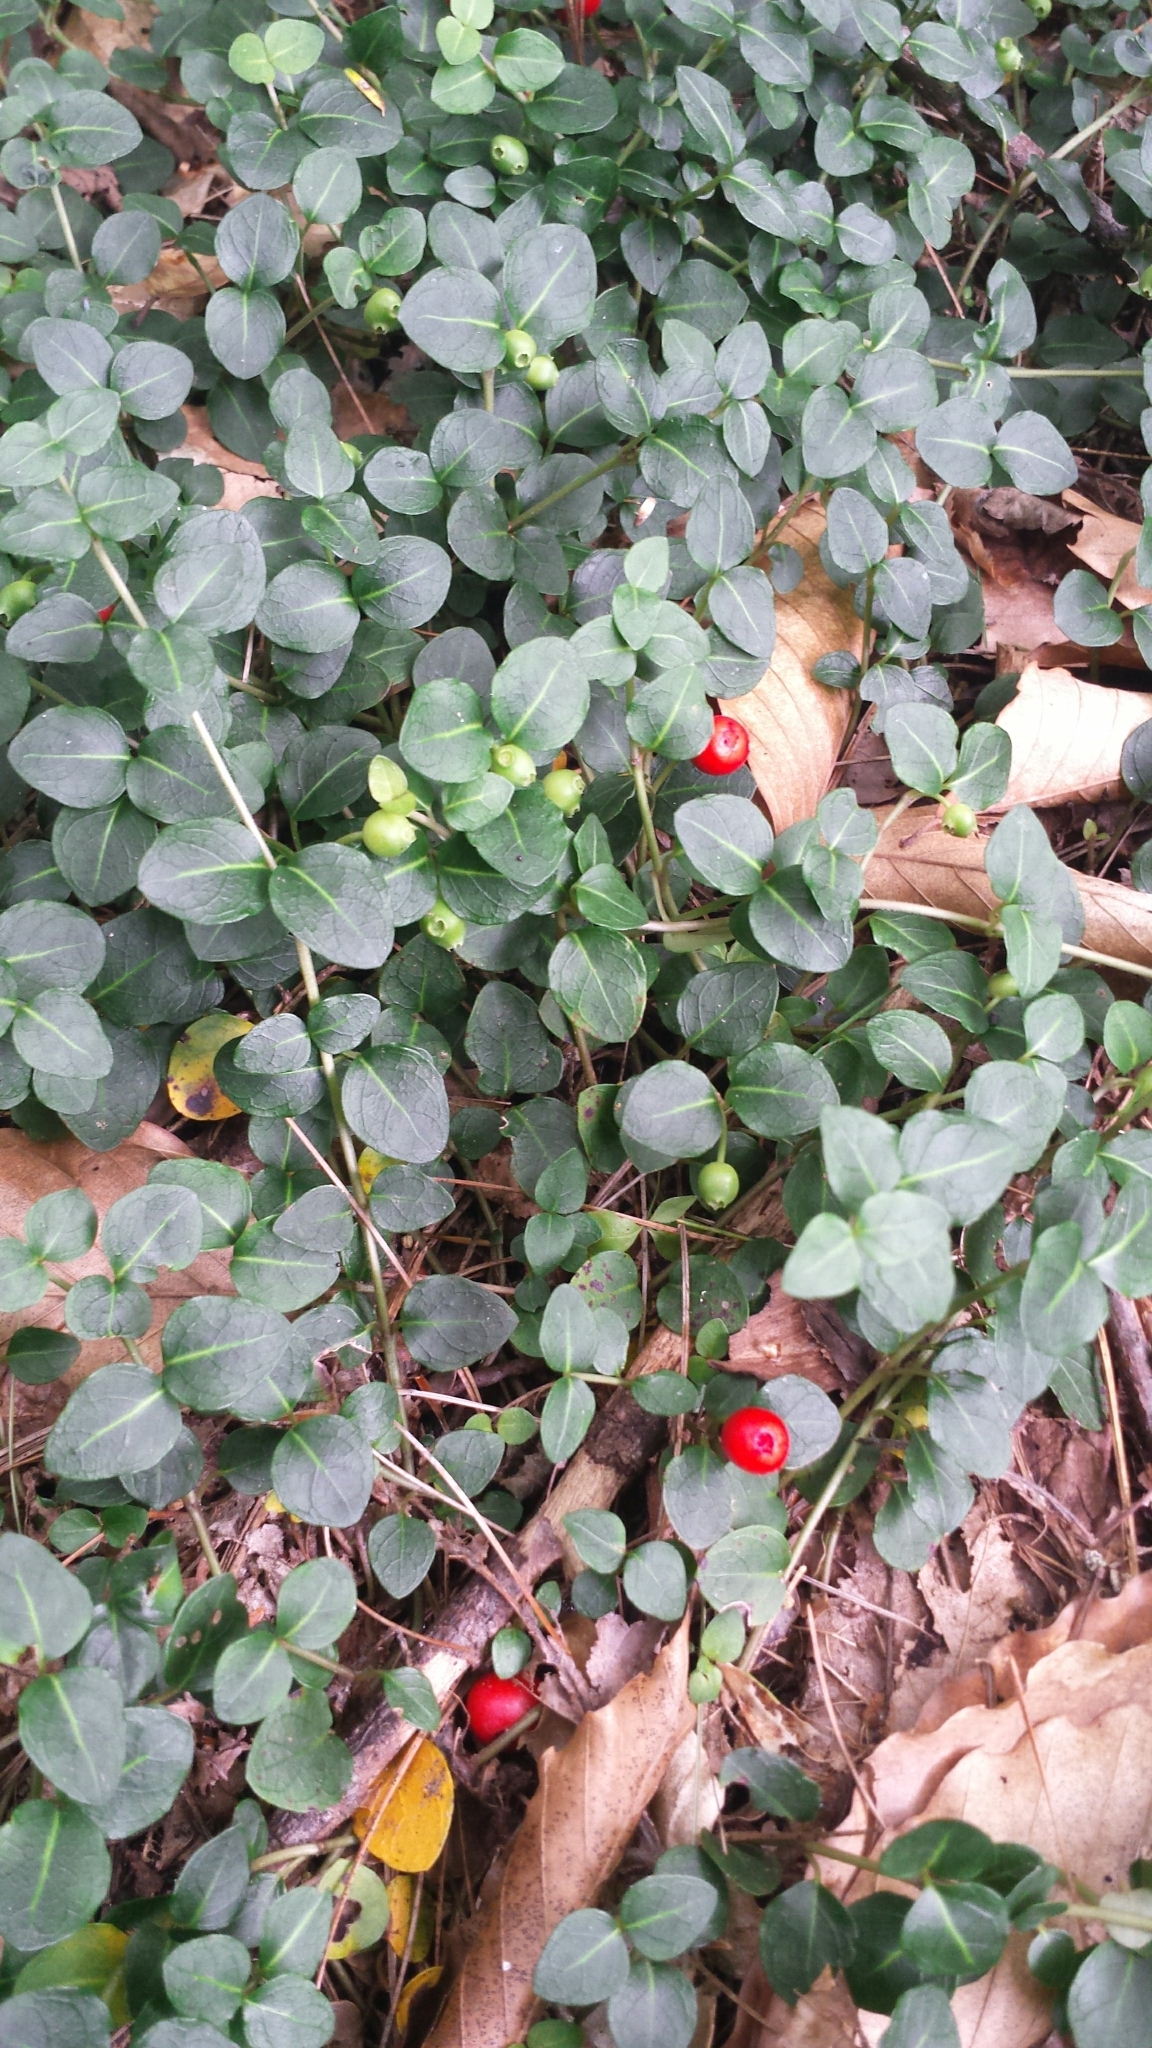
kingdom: Plantae
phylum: Tracheophyta
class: Magnoliopsida
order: Gentianales
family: Rubiaceae
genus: Mitchella
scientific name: Mitchella repens
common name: Partridge-berry
